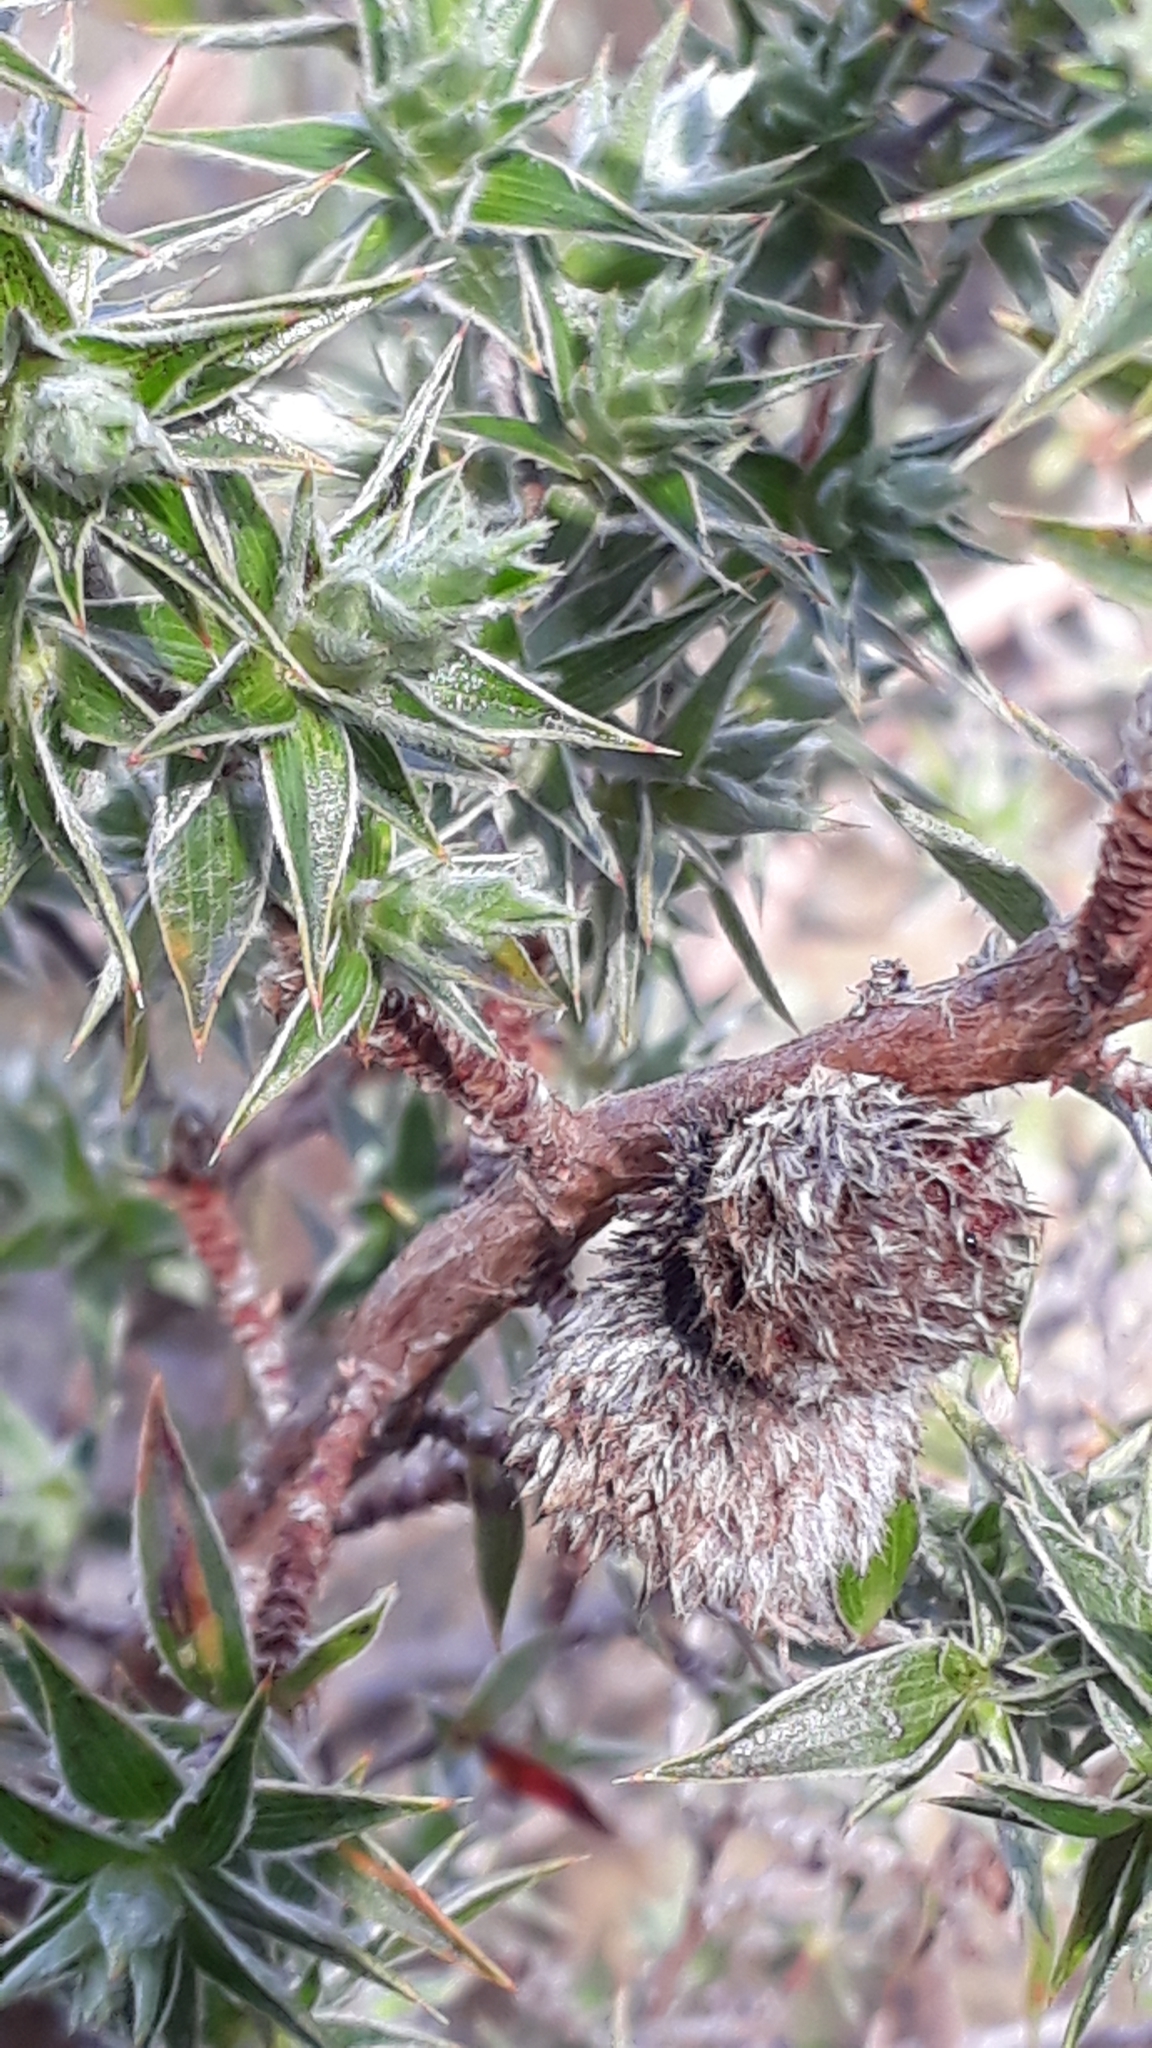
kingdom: Plantae
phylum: Tracheophyta
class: Magnoliopsida
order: Rosales
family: Rosaceae
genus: Cliffortia
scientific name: Cliffortia ruscifolia
